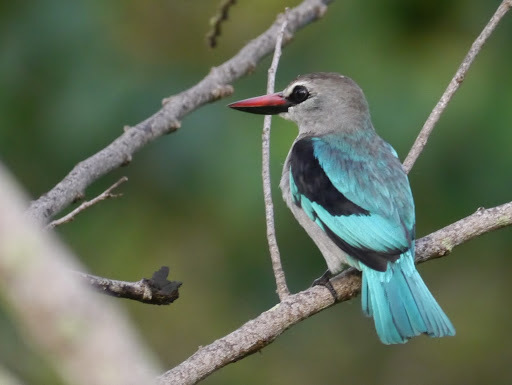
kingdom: Animalia
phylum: Chordata
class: Aves
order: Coraciiformes
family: Alcedinidae
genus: Halcyon
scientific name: Halcyon senegalensis
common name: Woodland kingfisher
